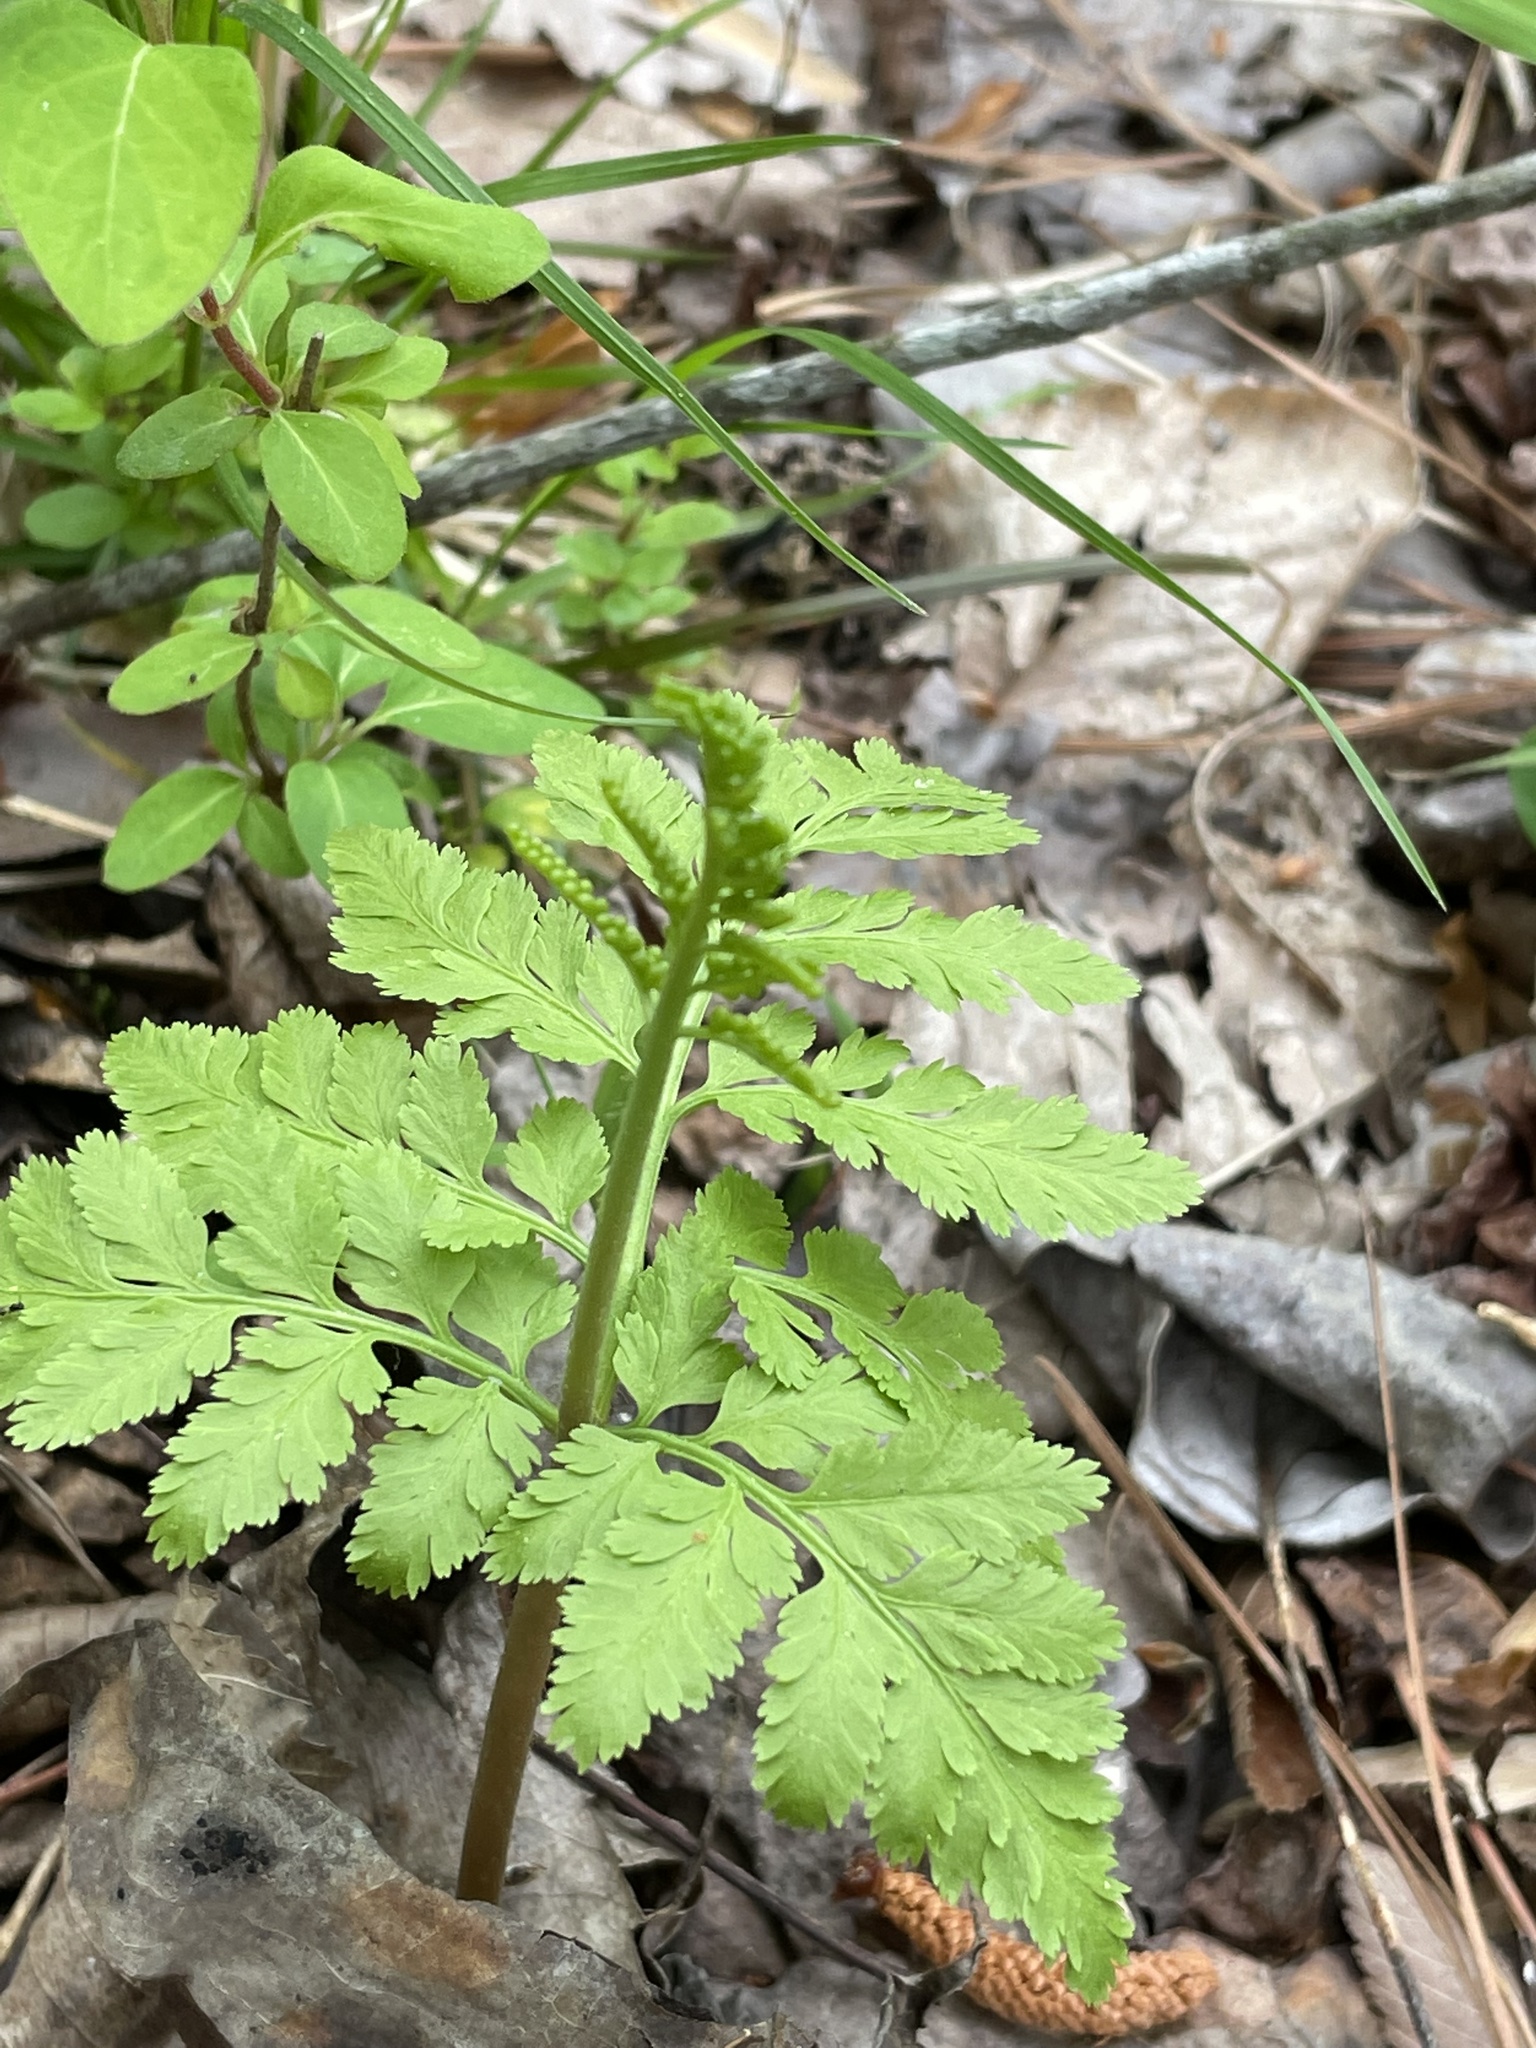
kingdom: Plantae
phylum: Tracheophyta
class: Polypodiopsida
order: Ophioglossales
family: Ophioglossaceae
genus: Botrypus
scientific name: Botrypus virginianus
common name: Common grapefern
